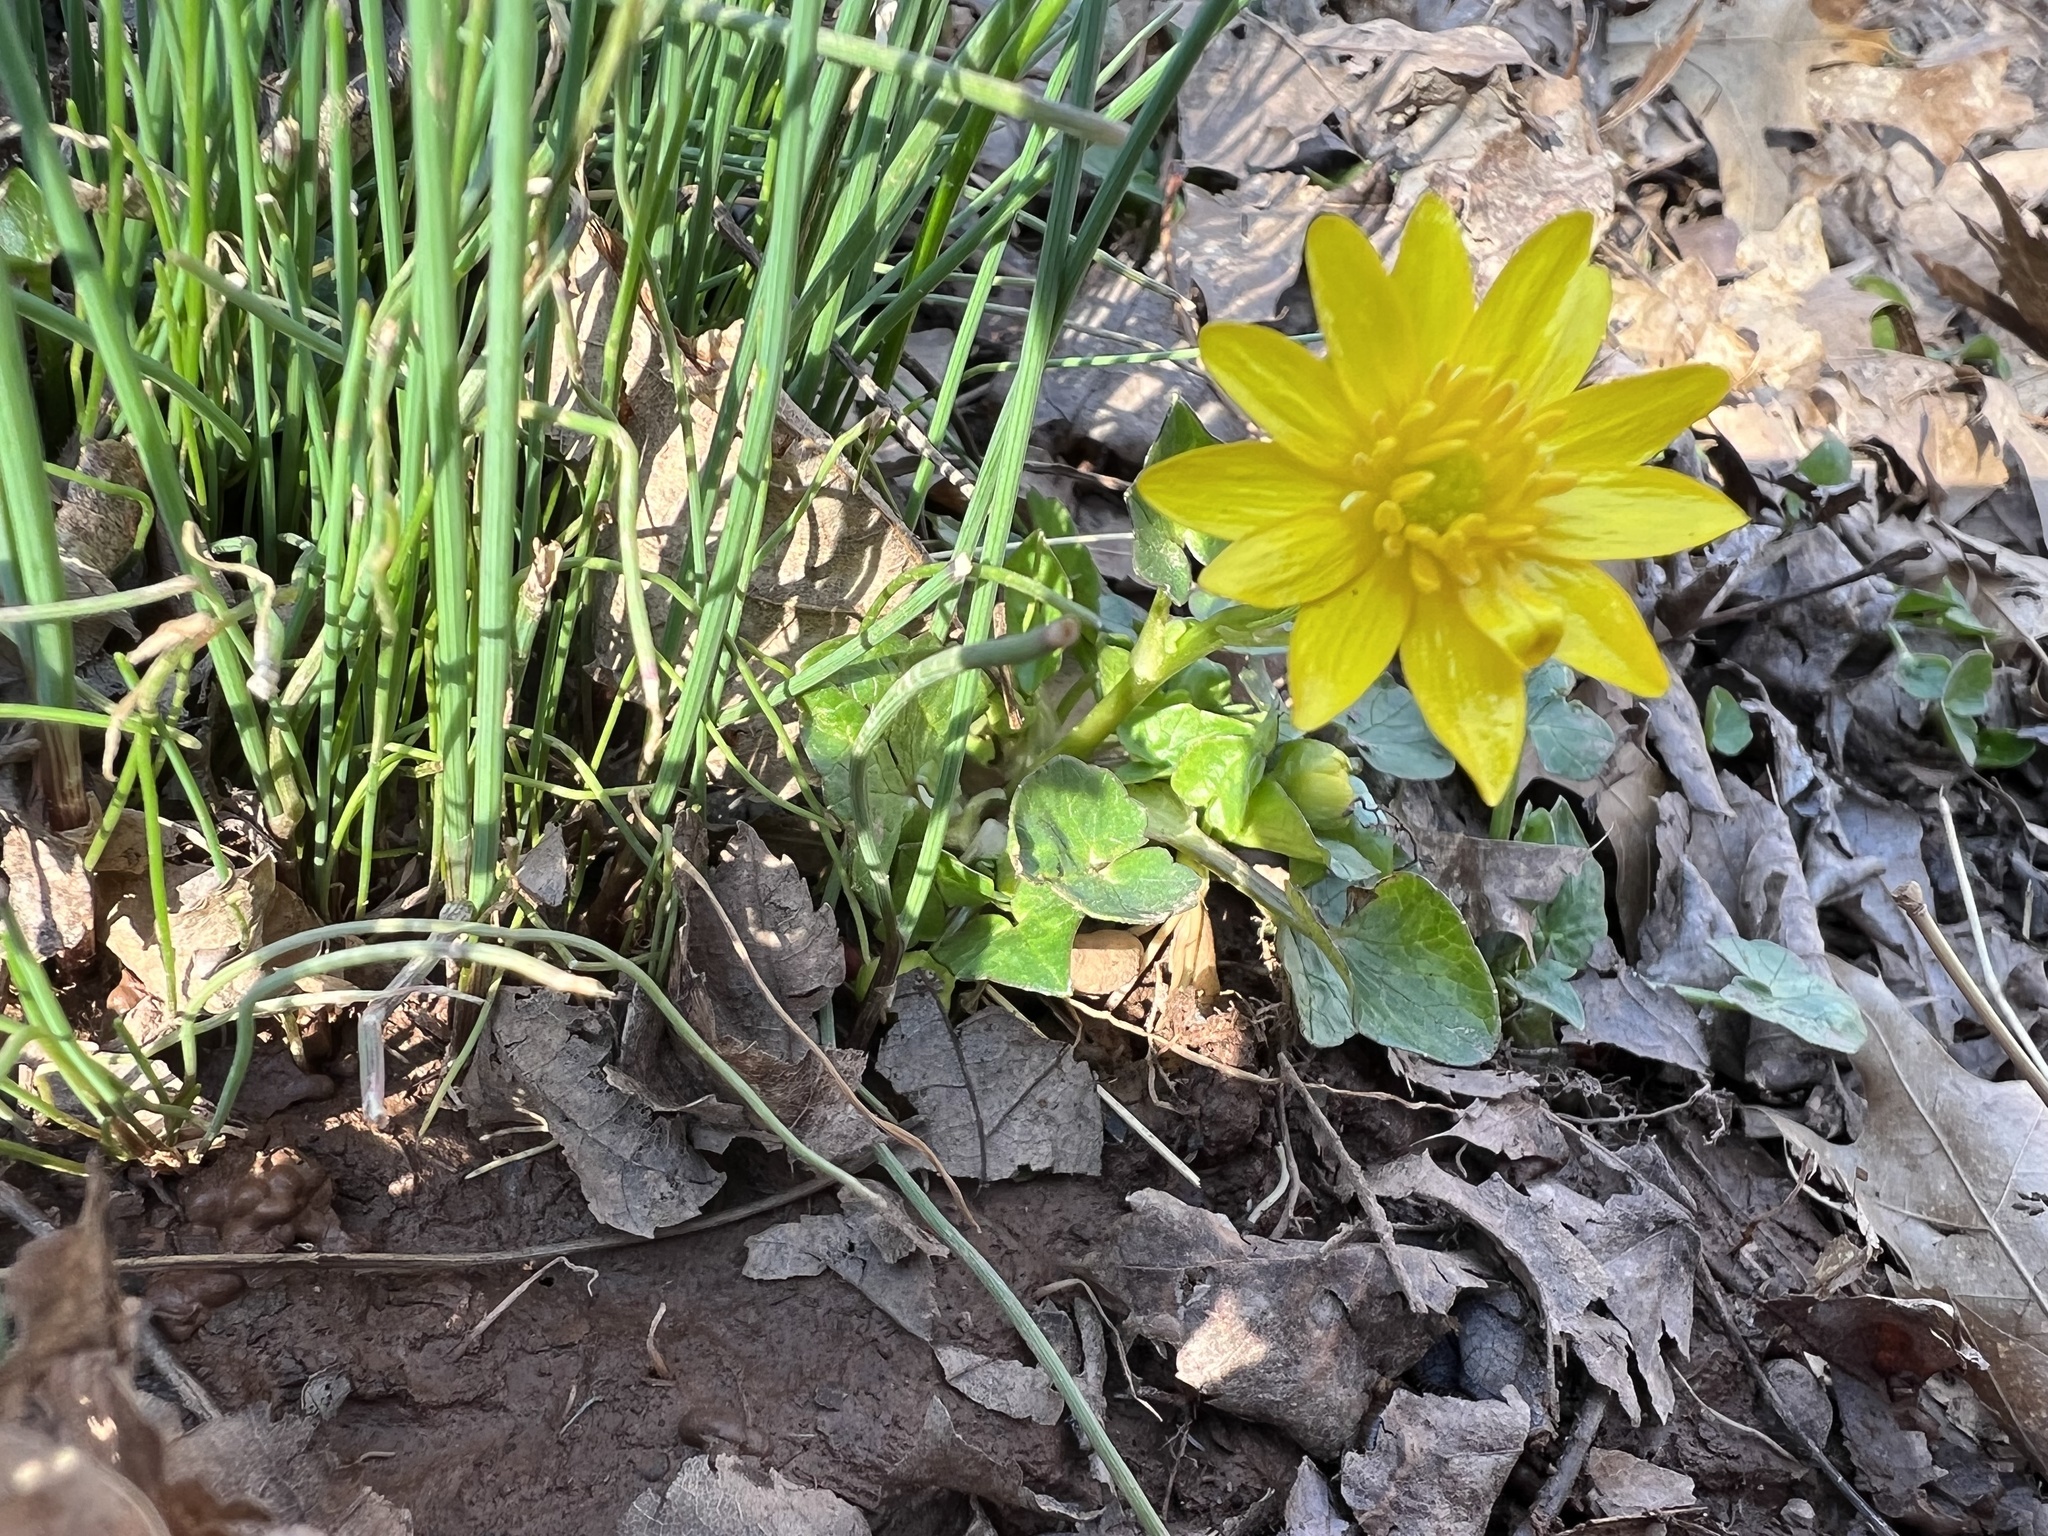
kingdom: Plantae
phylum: Tracheophyta
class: Magnoliopsida
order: Ranunculales
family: Ranunculaceae
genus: Ficaria
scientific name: Ficaria verna
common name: Lesser celandine
